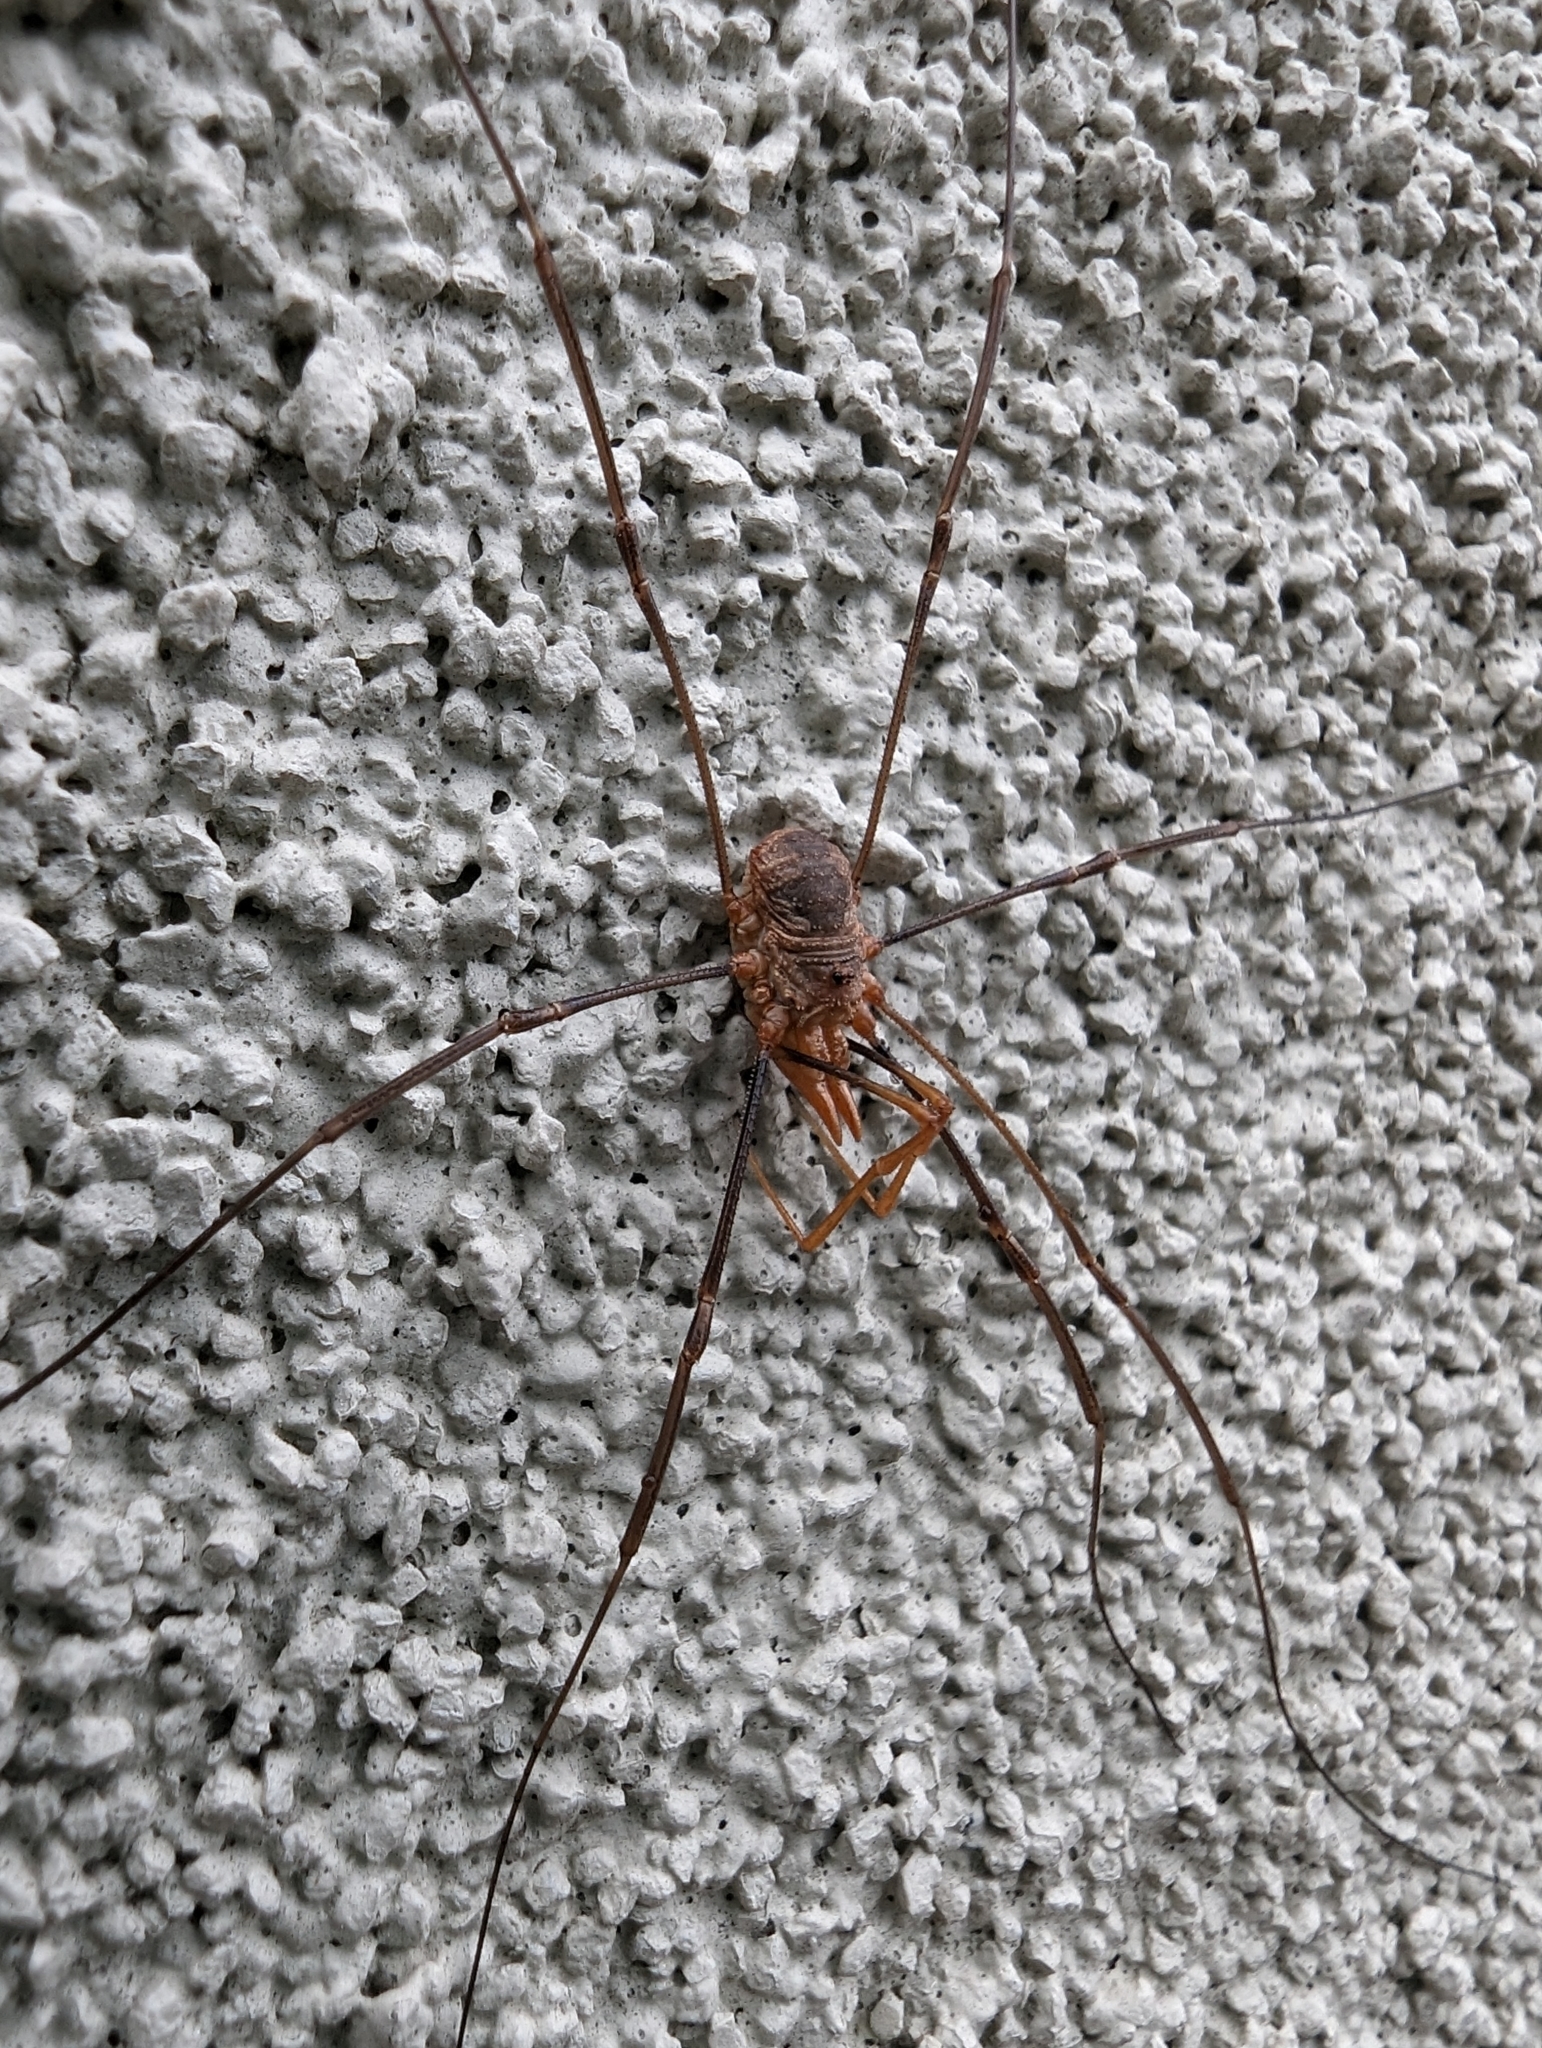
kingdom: Animalia
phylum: Arthropoda
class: Arachnida
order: Opiliones
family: Phalangiidae
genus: Phalangium
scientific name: Phalangium opilio
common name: Daddy longleg
